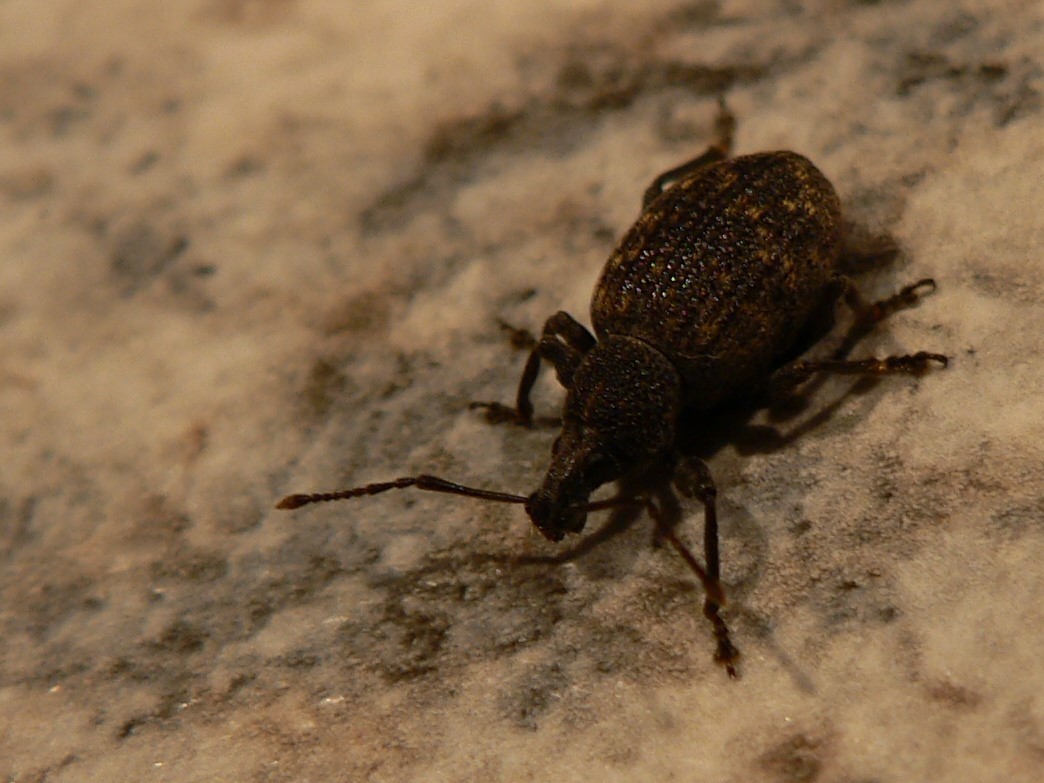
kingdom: Animalia
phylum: Arthropoda
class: Insecta
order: Coleoptera
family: Curculionidae
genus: Otiorhynchus
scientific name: Otiorhynchus sulcatus
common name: Black vine weevil
